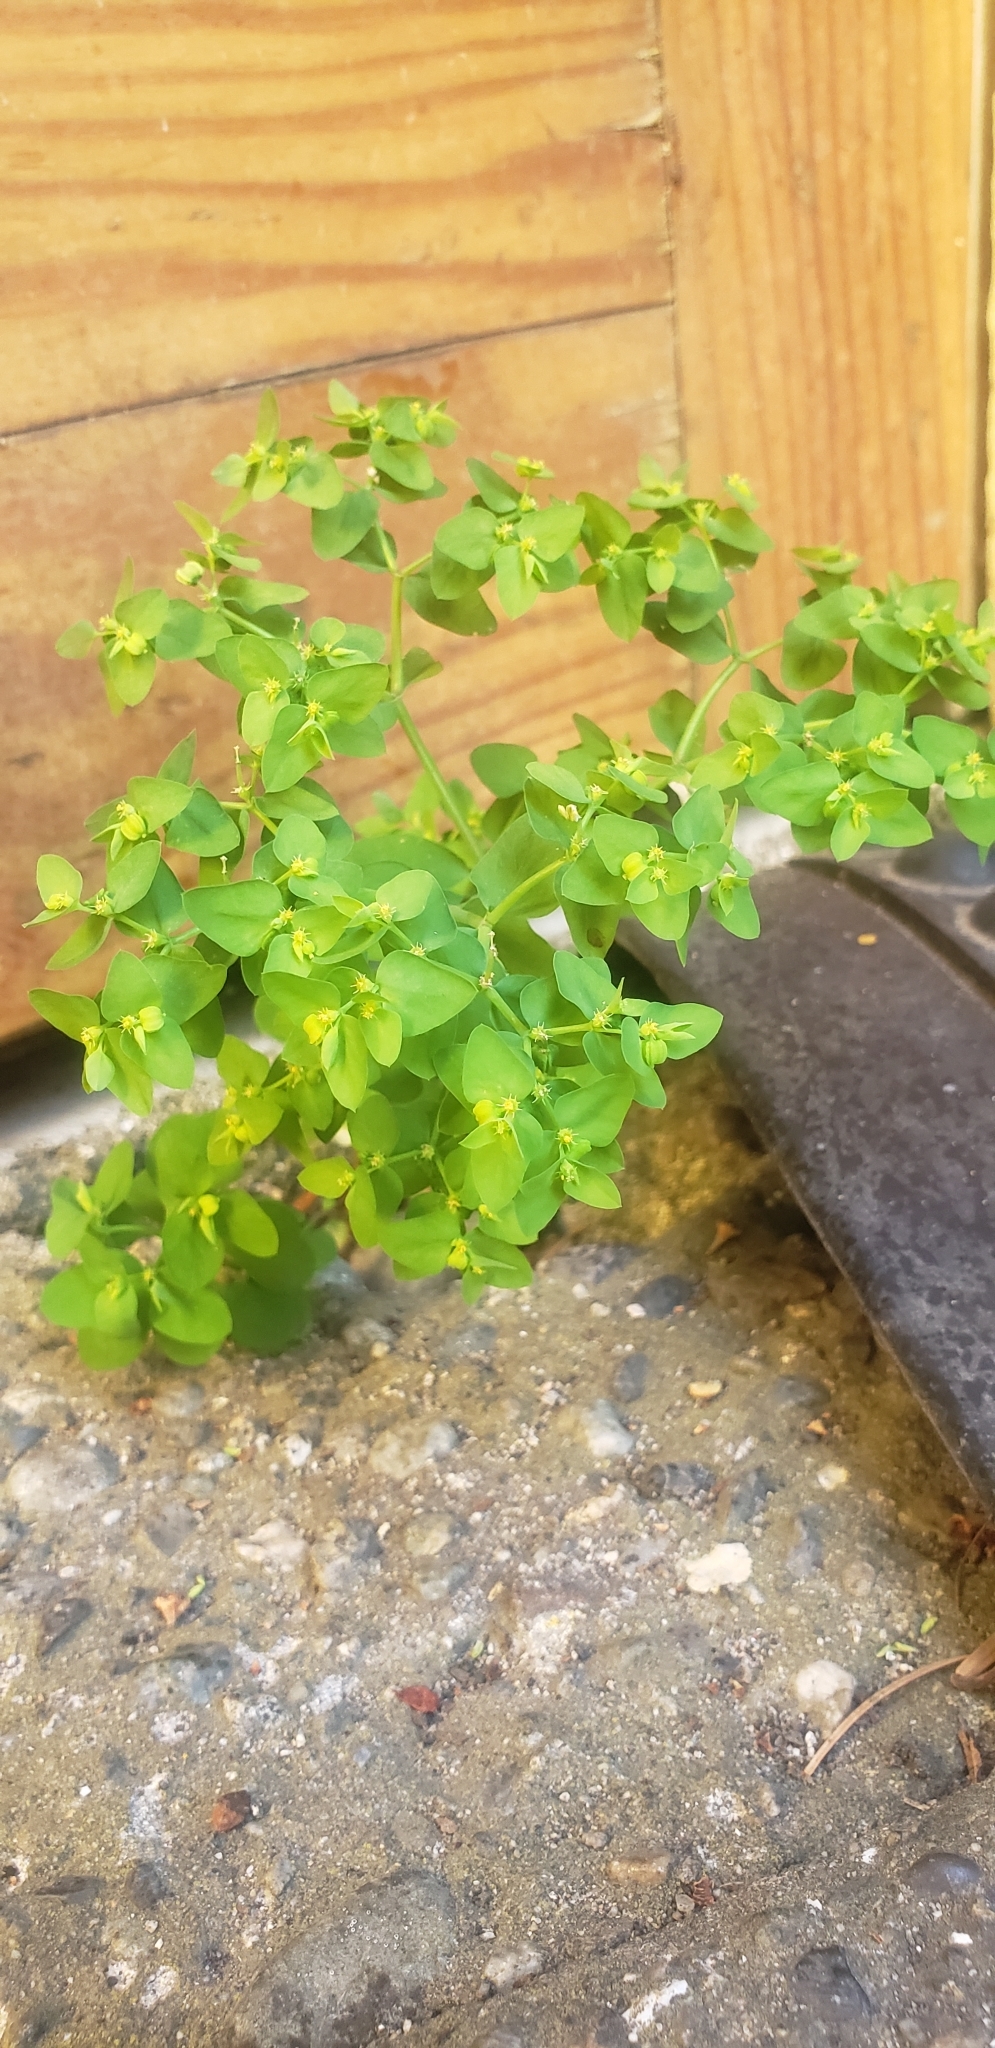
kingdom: Plantae
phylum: Tracheophyta
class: Magnoliopsida
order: Malpighiales
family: Euphorbiaceae
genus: Euphorbia
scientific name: Euphorbia peplus
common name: Petty spurge
